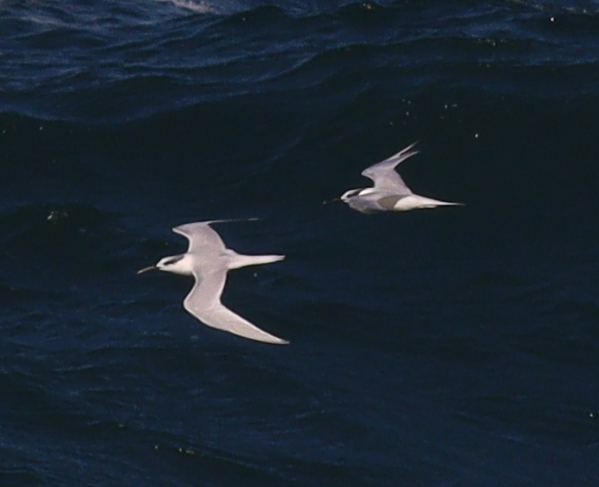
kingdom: Animalia
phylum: Chordata
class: Aves
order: Charadriiformes
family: Laridae
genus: Thalasseus
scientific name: Thalasseus sandvicensis
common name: Sandwich tern
